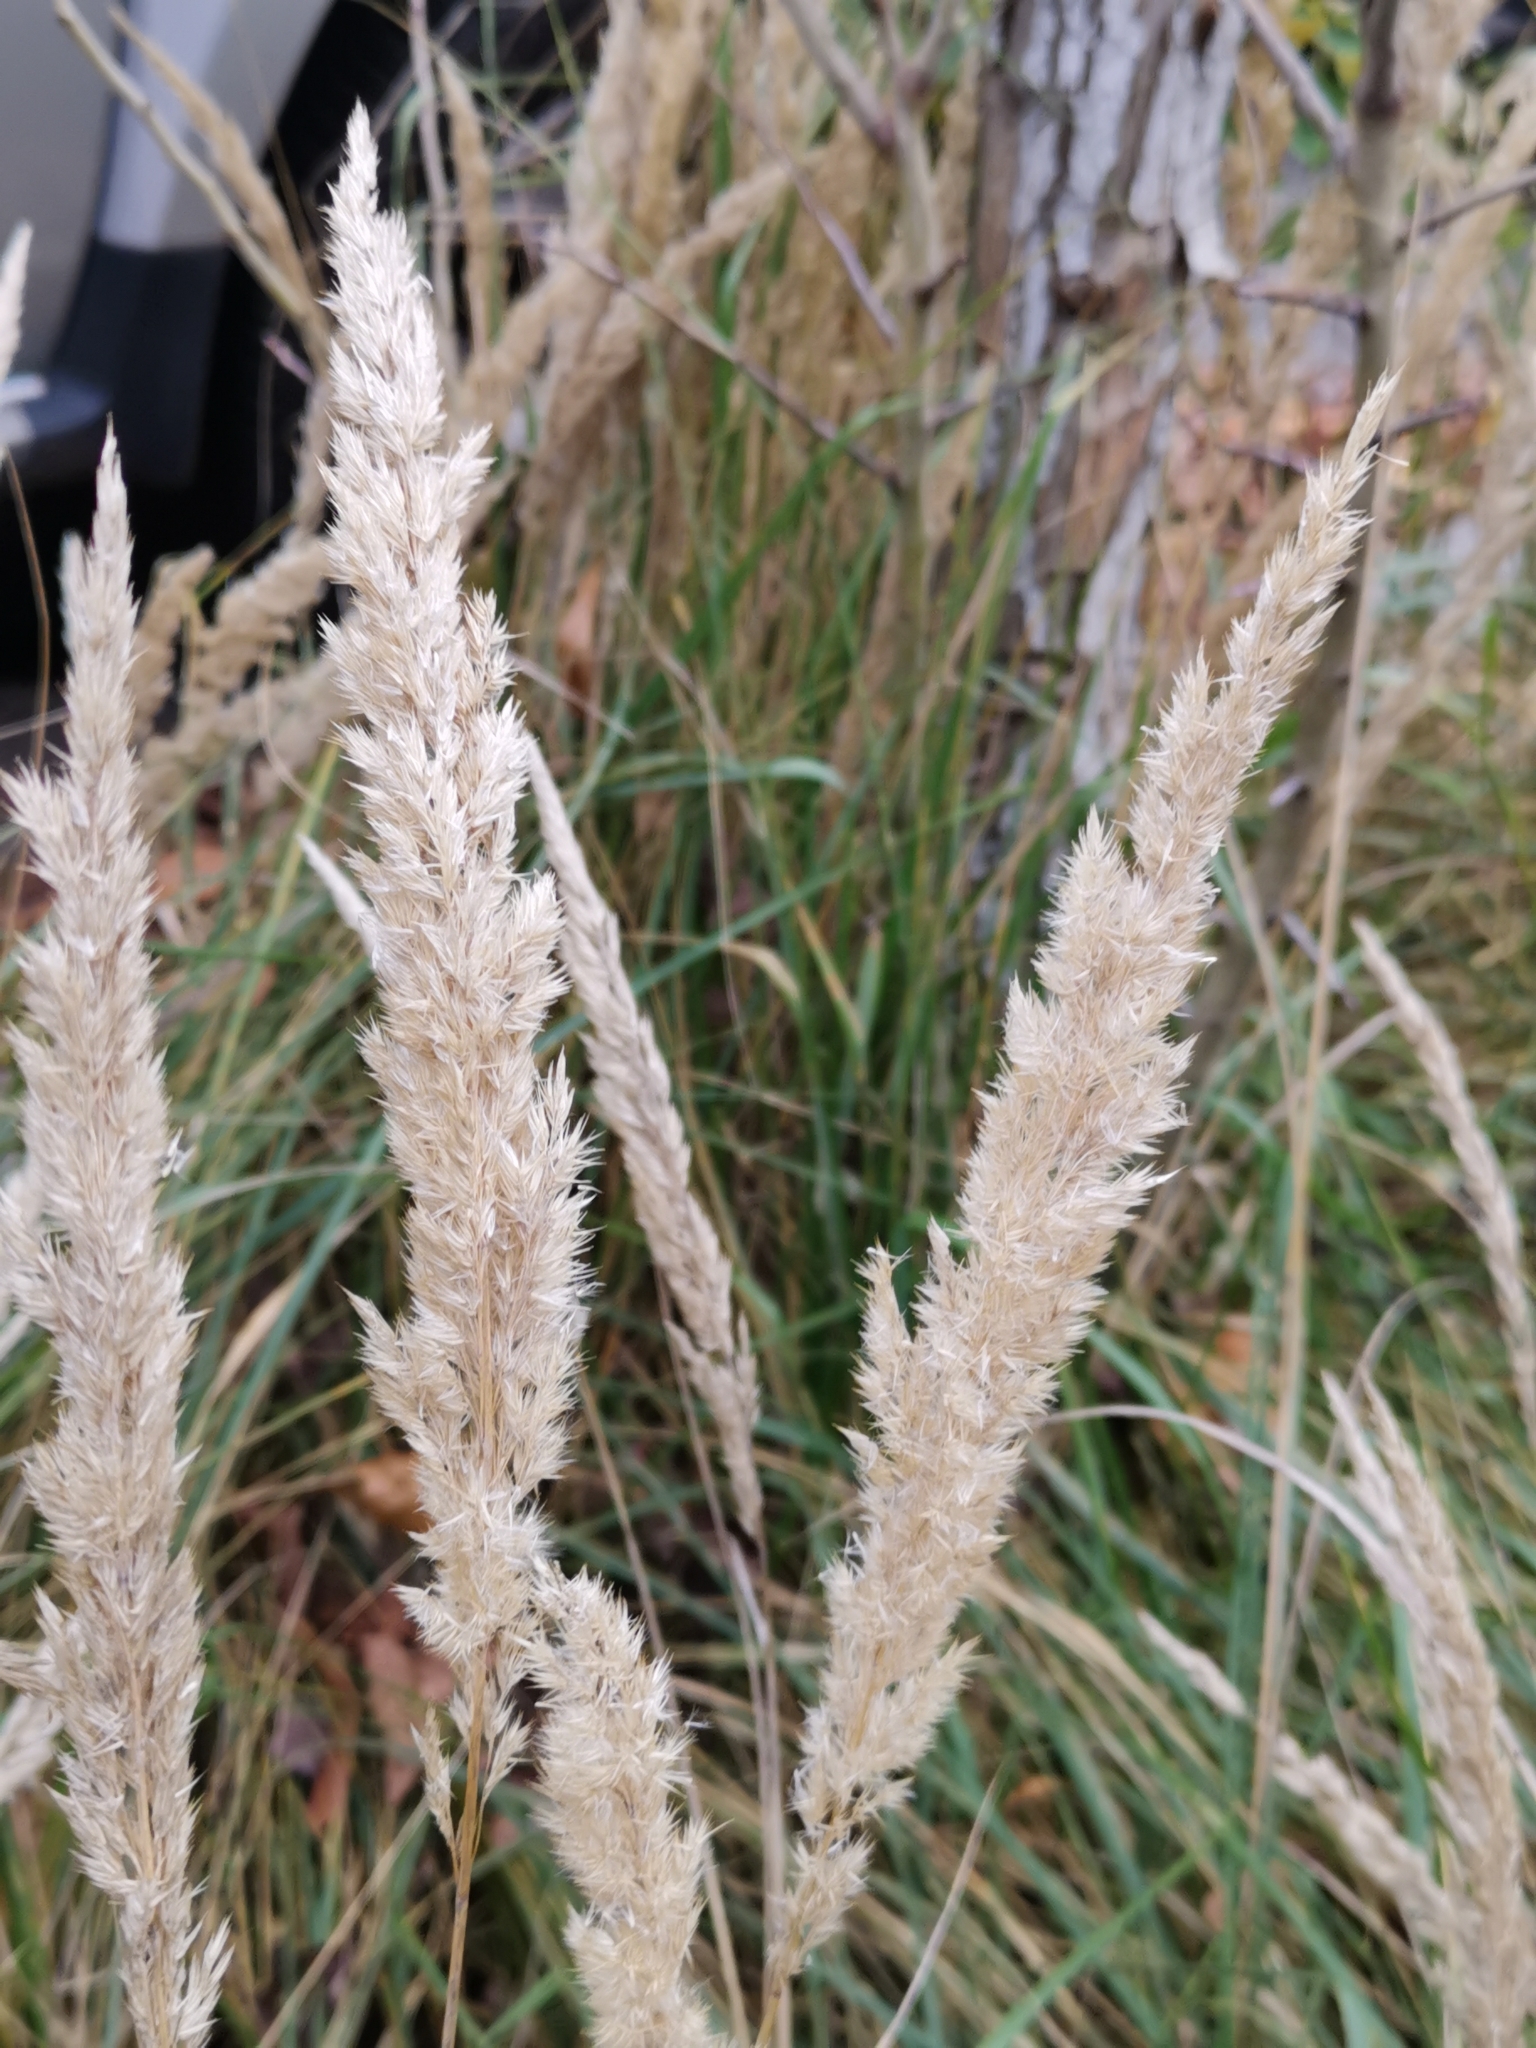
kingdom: Plantae
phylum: Tracheophyta
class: Liliopsida
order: Poales
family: Poaceae
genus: Calamagrostis
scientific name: Calamagrostis epigejos
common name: Wood small-reed
